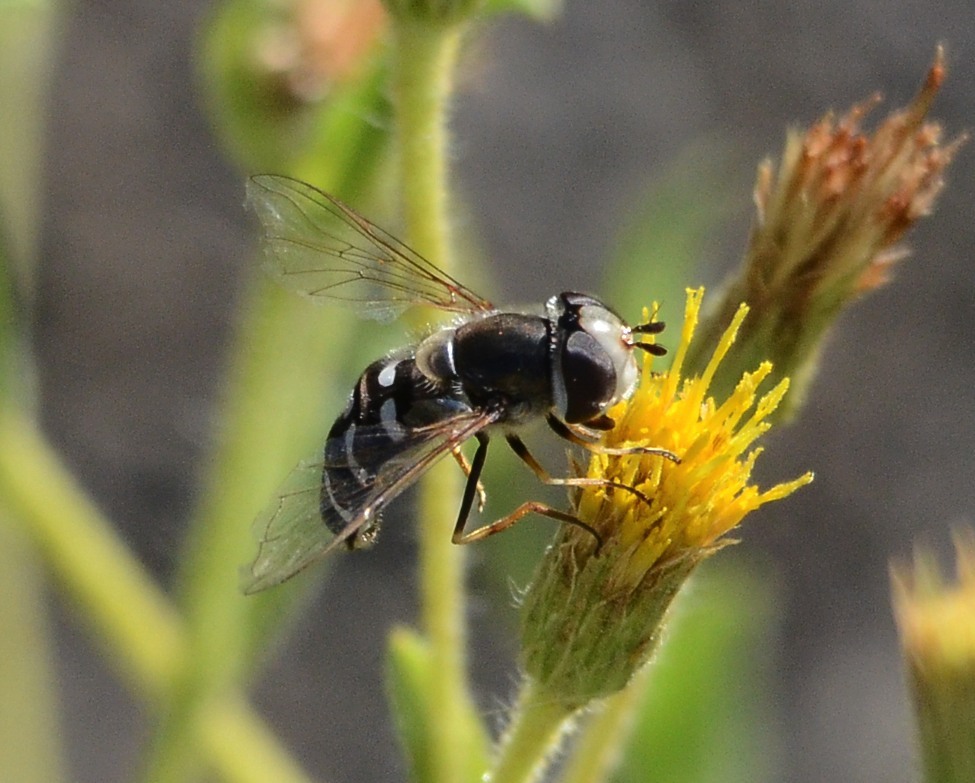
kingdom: Animalia
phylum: Arthropoda
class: Insecta
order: Diptera
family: Syrphidae
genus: Scaeva
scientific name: Scaeva affinis
